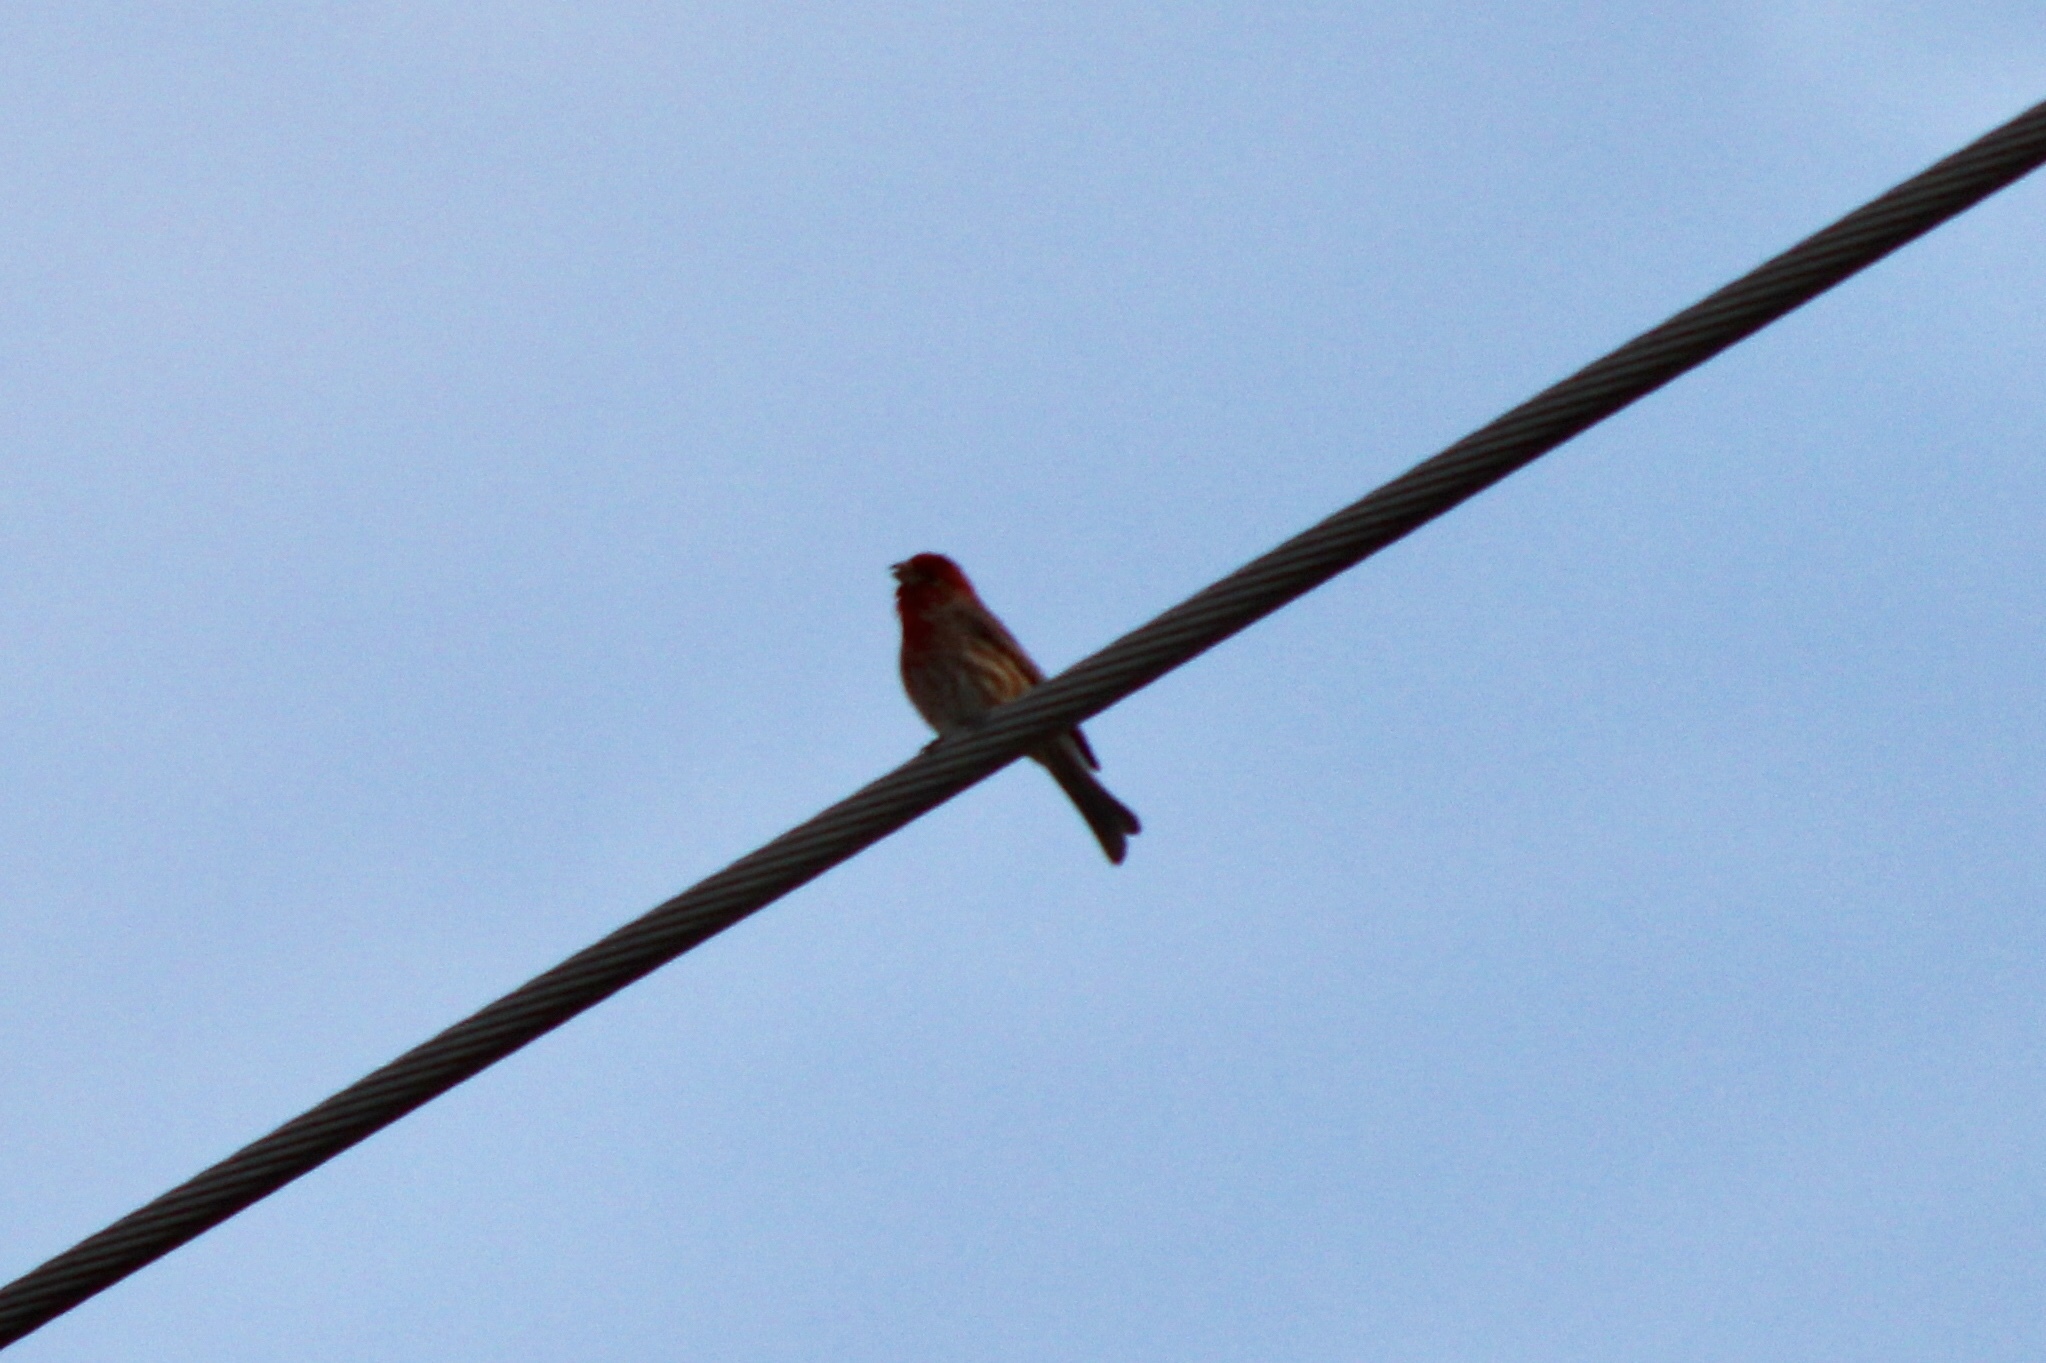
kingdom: Animalia
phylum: Chordata
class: Aves
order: Passeriformes
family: Fringillidae
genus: Haemorhous
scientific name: Haemorhous mexicanus
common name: House finch
